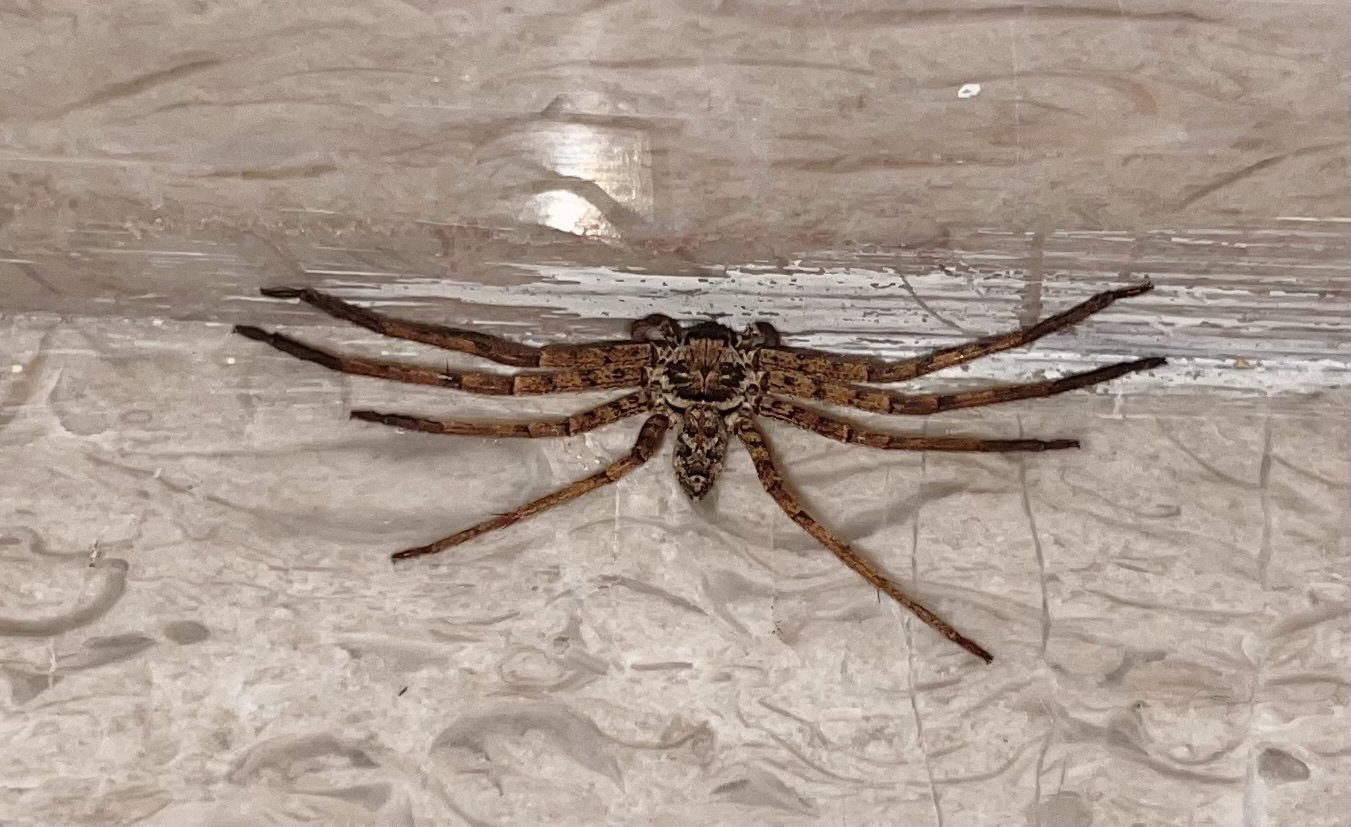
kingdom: Animalia
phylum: Arthropoda
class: Arachnida
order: Araneae
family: Sparassidae
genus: Heteropoda
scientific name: Heteropoda venatoria
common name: Huntsman spider
